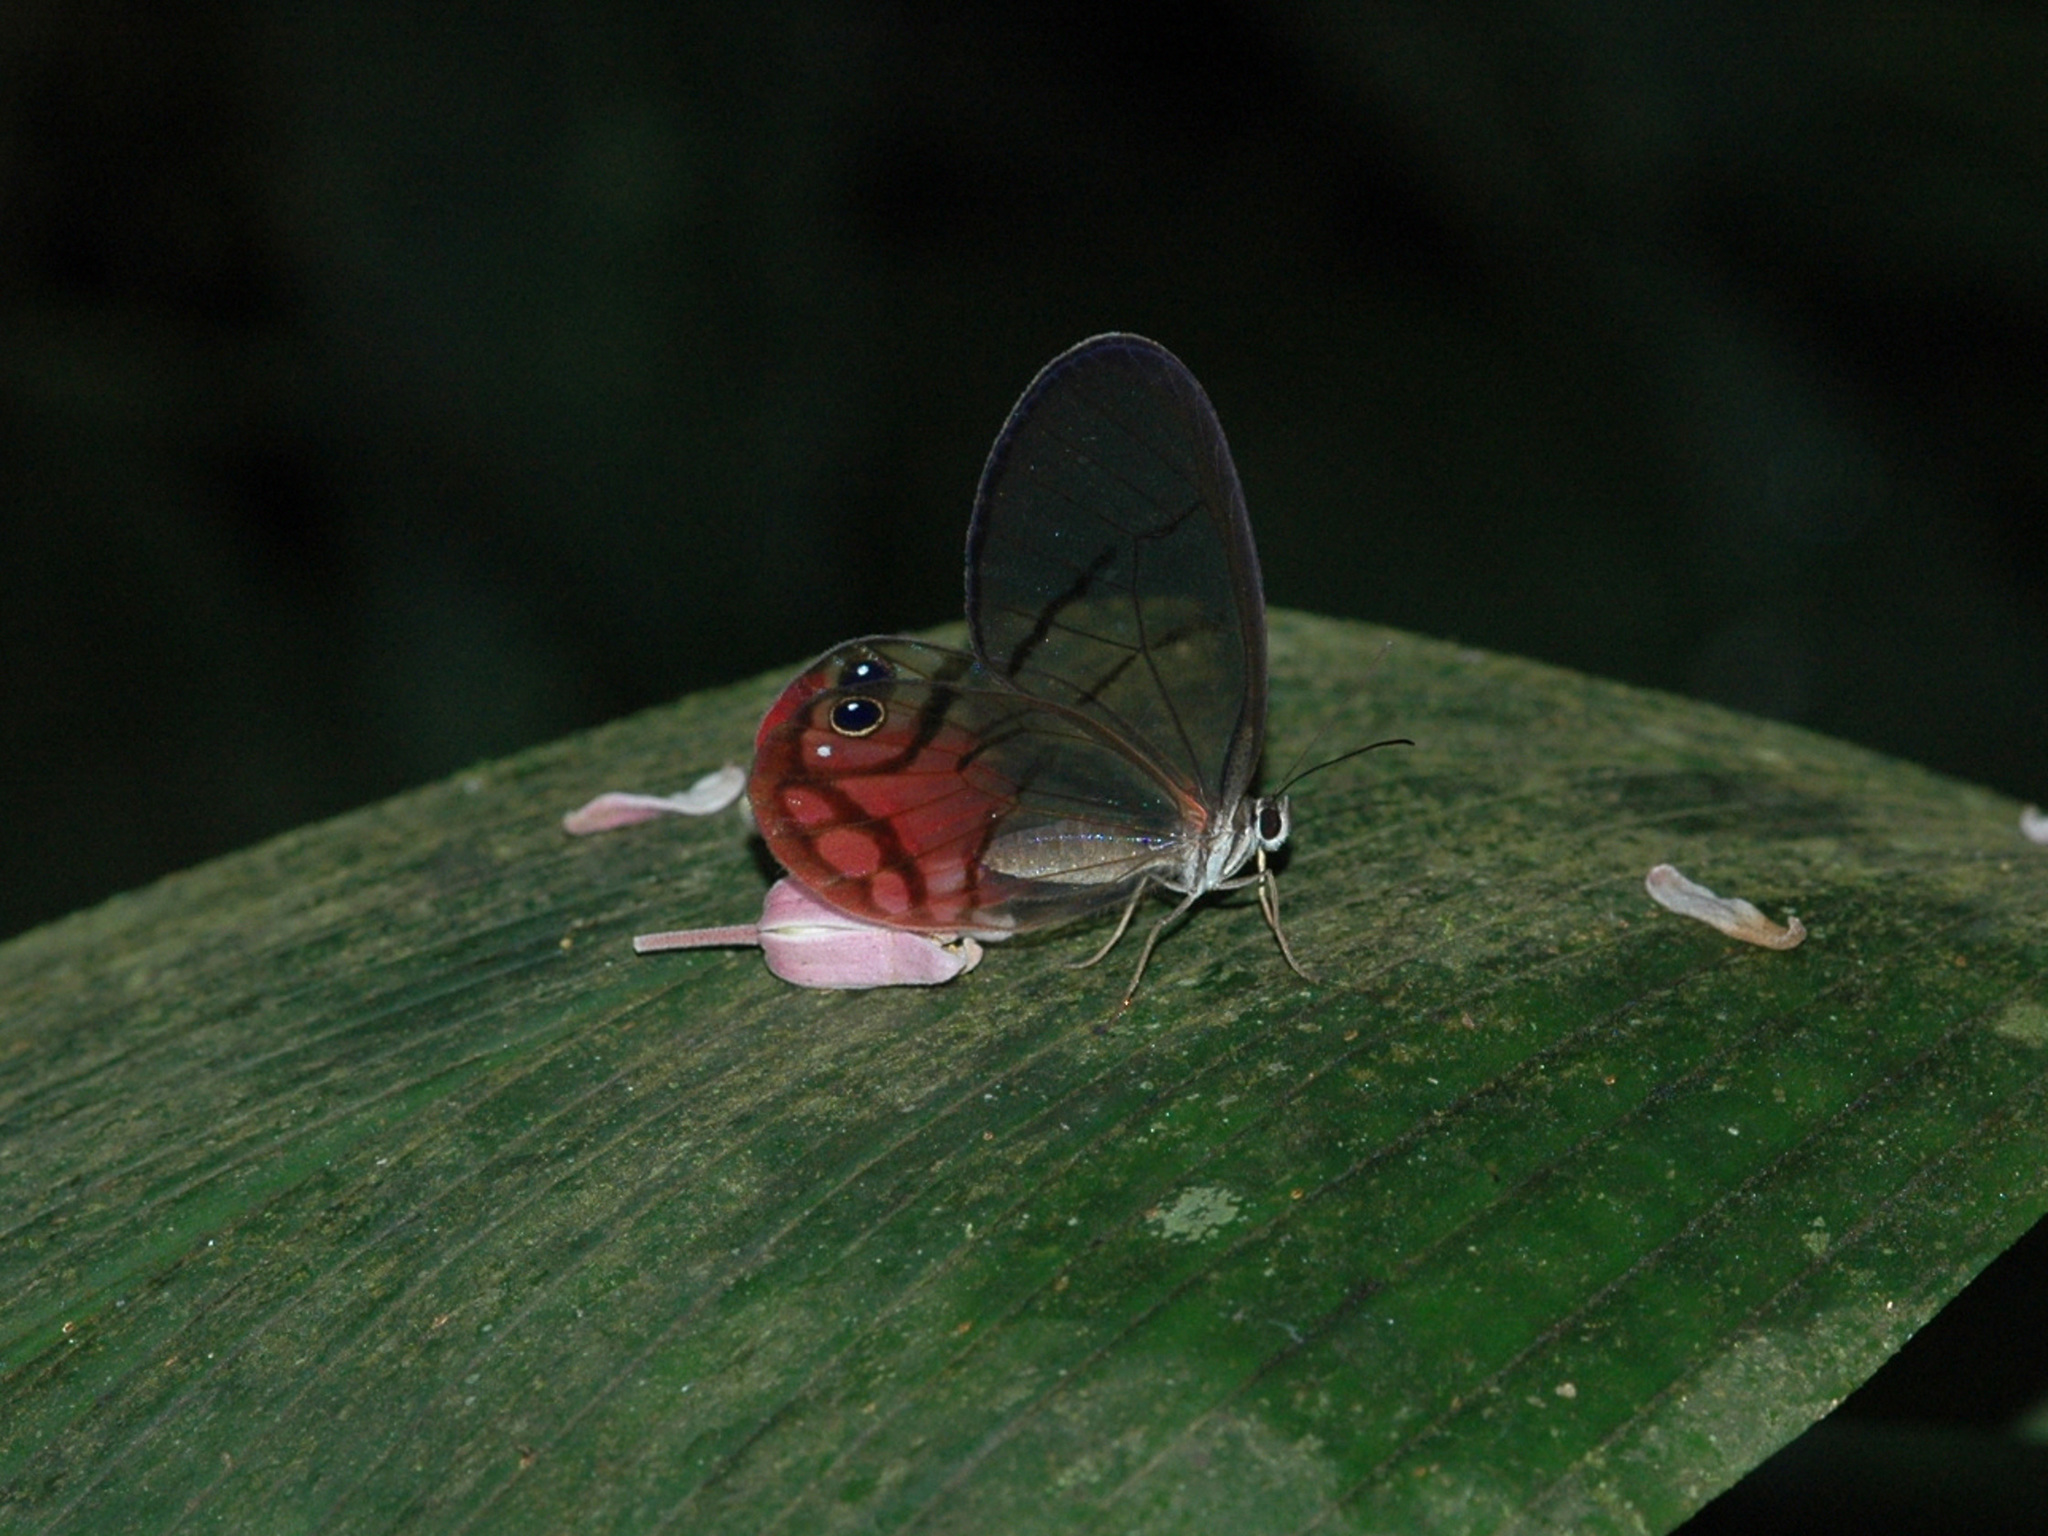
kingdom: Animalia
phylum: Arthropoda
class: Insecta
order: Lepidoptera
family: Nymphalidae
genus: Cithaerias
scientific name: Cithaerias pireta
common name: Rusted clearwing-satyr
